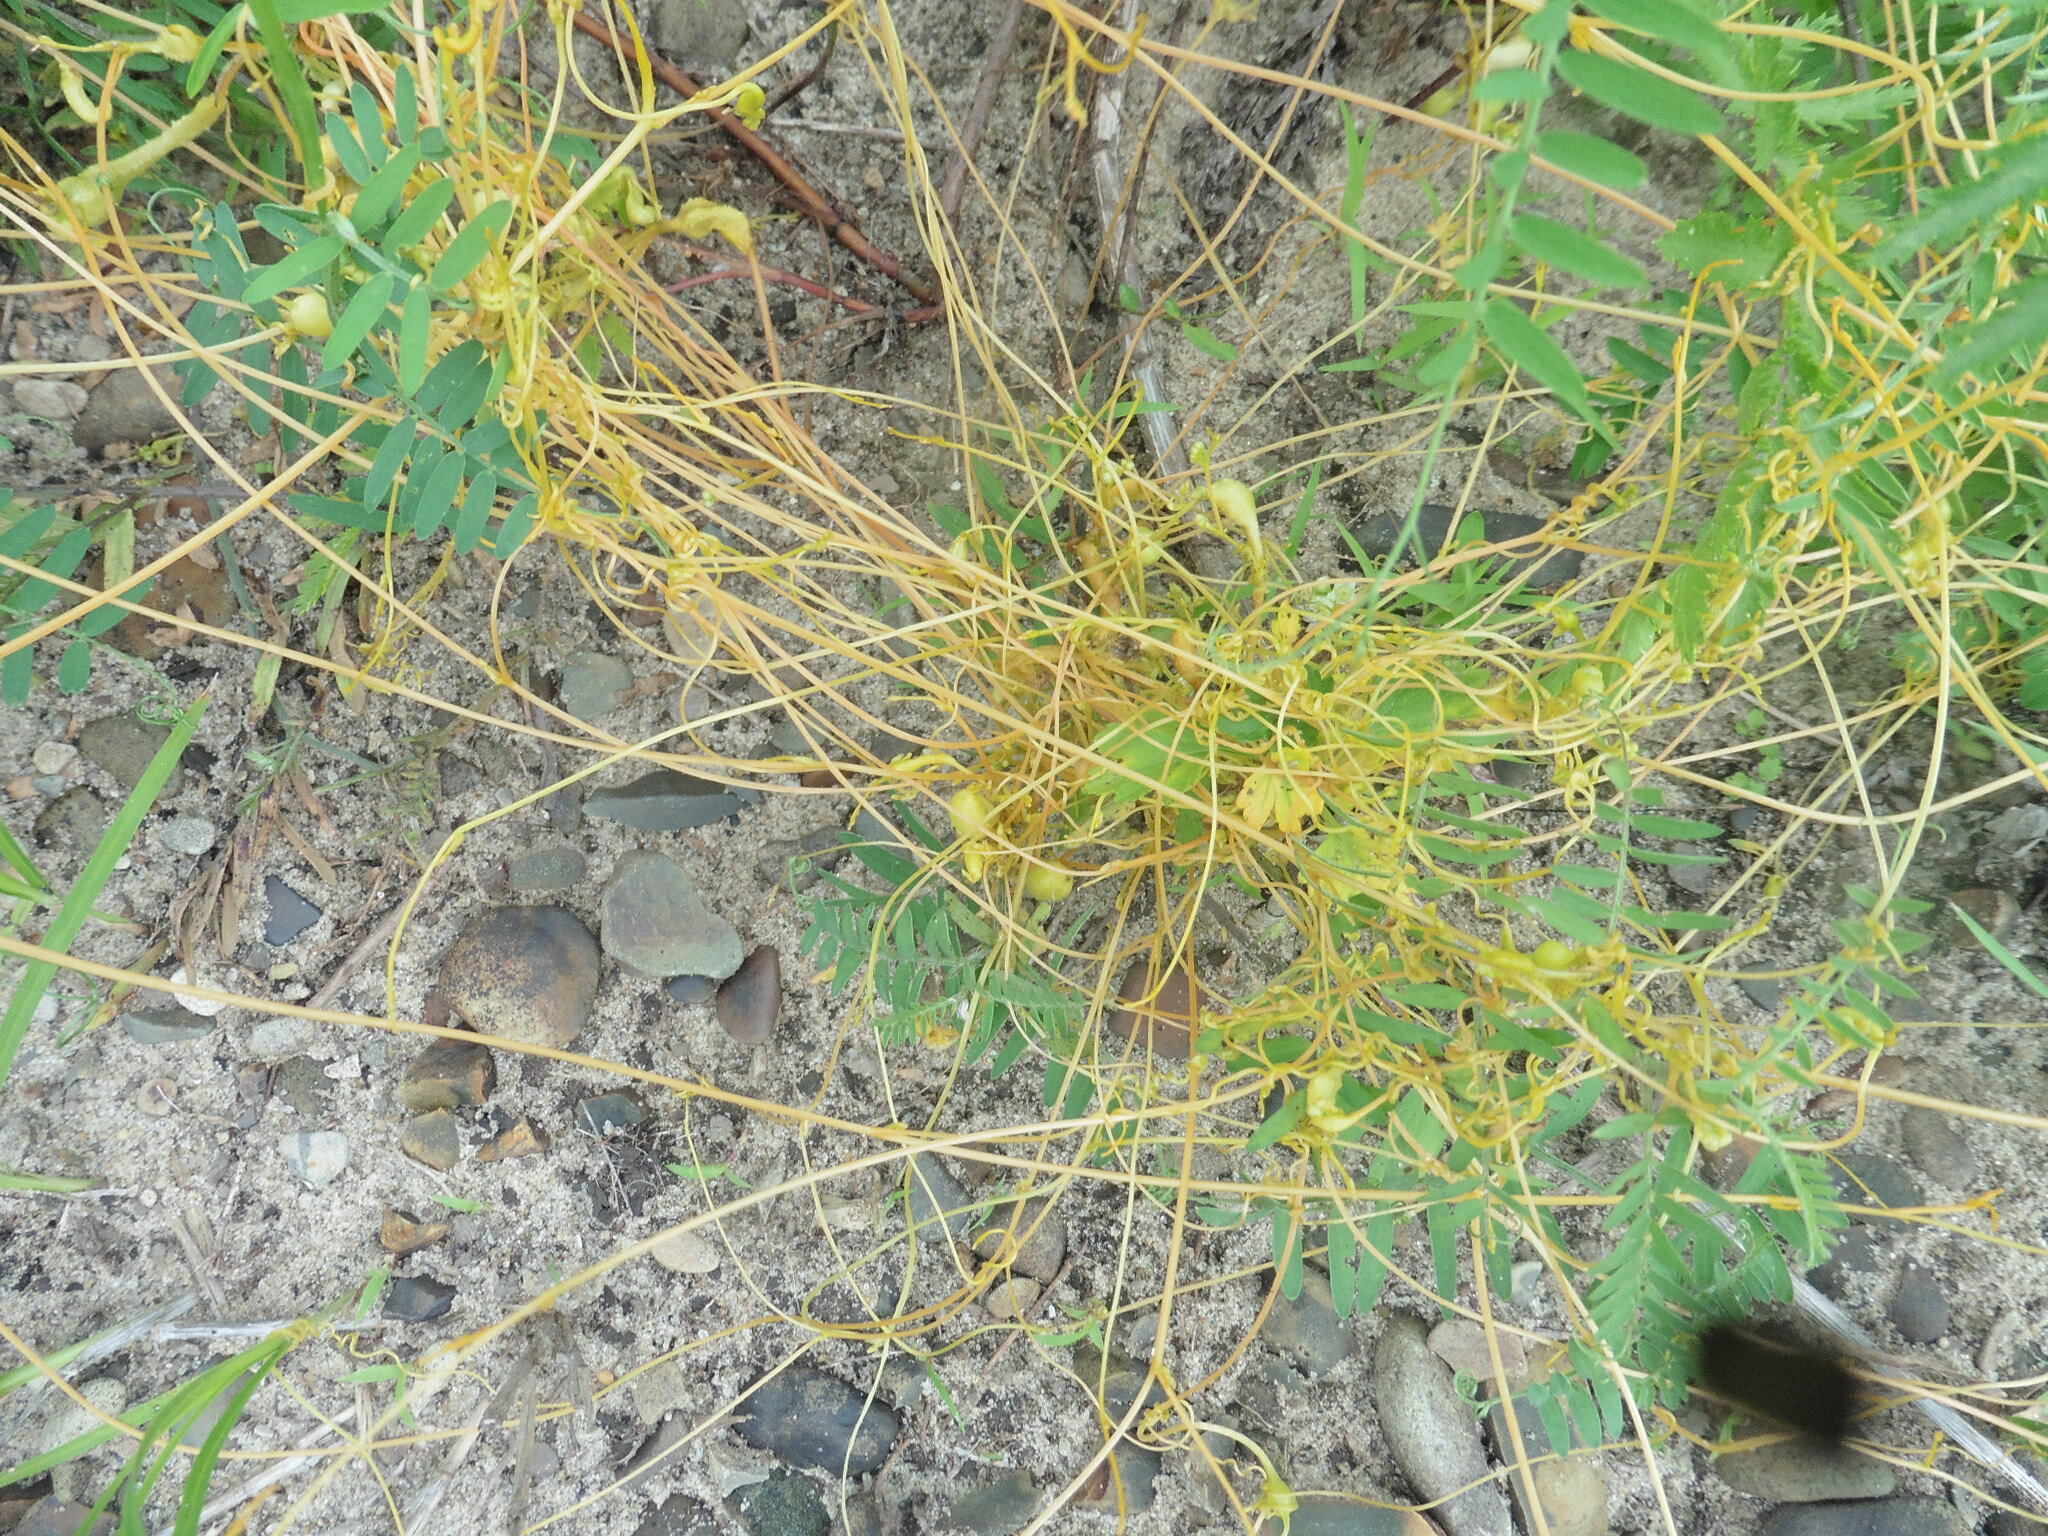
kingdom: Plantae
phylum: Tracheophyta
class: Magnoliopsida
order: Solanales
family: Convolvulaceae
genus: Cuscuta
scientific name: Cuscuta campestris
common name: Yellow dodder
